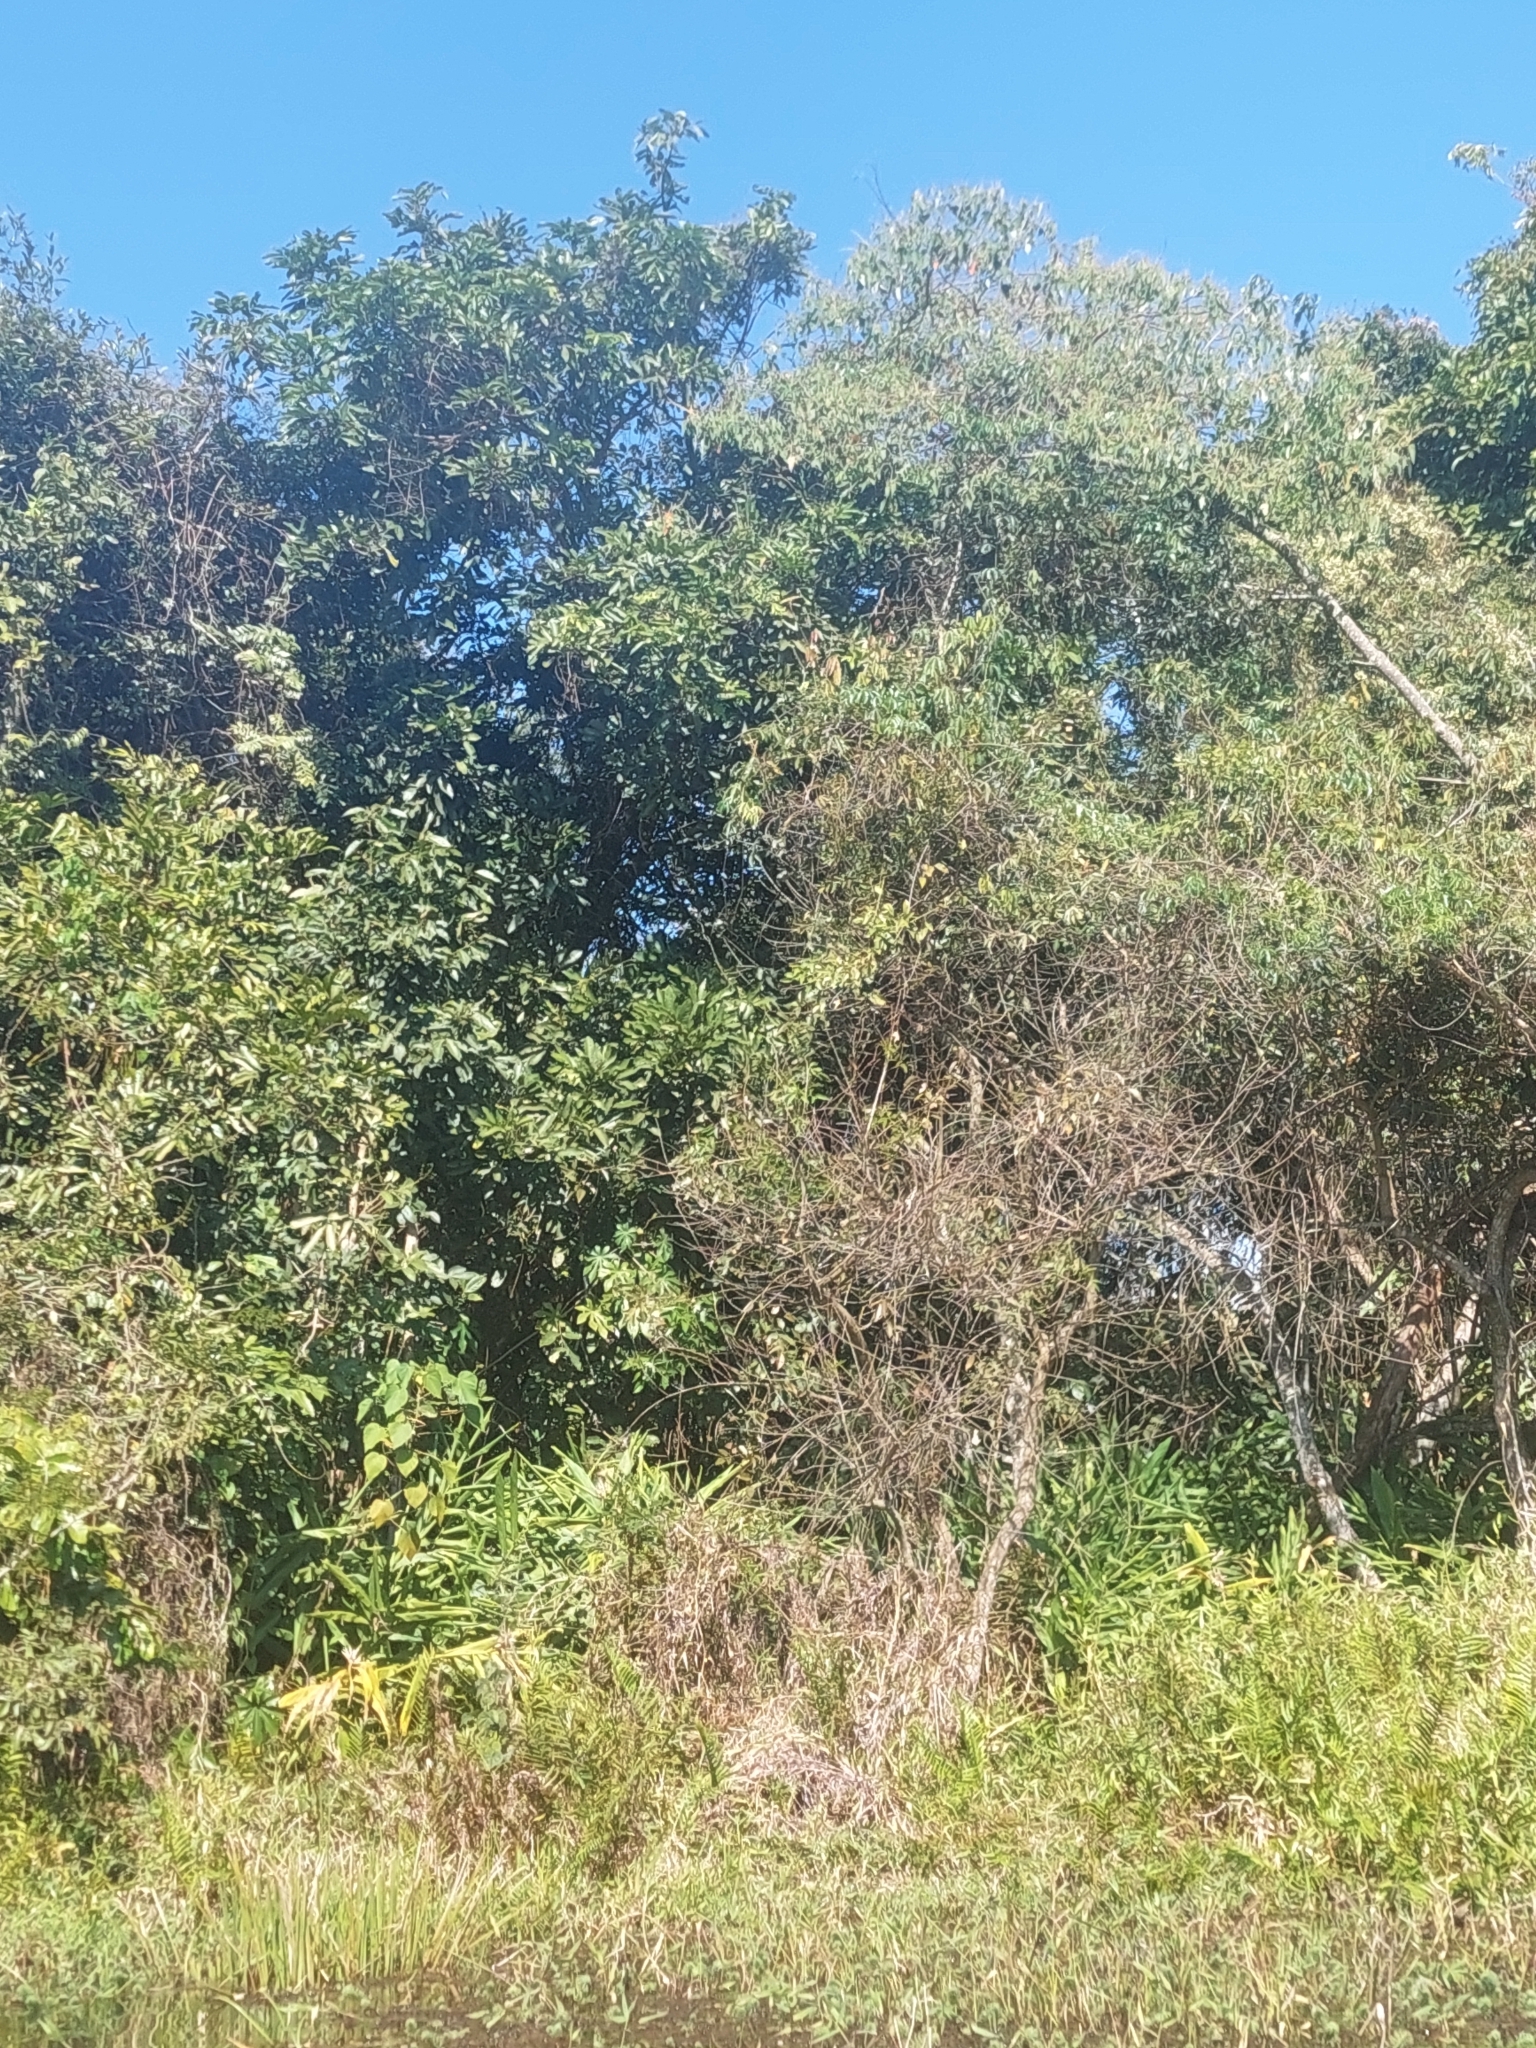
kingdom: Plantae
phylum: Tracheophyta
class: Liliopsida
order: Zingiberales
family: Zingiberaceae
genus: Hedychium
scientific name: Hedychium coronarium
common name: White garland-lily
